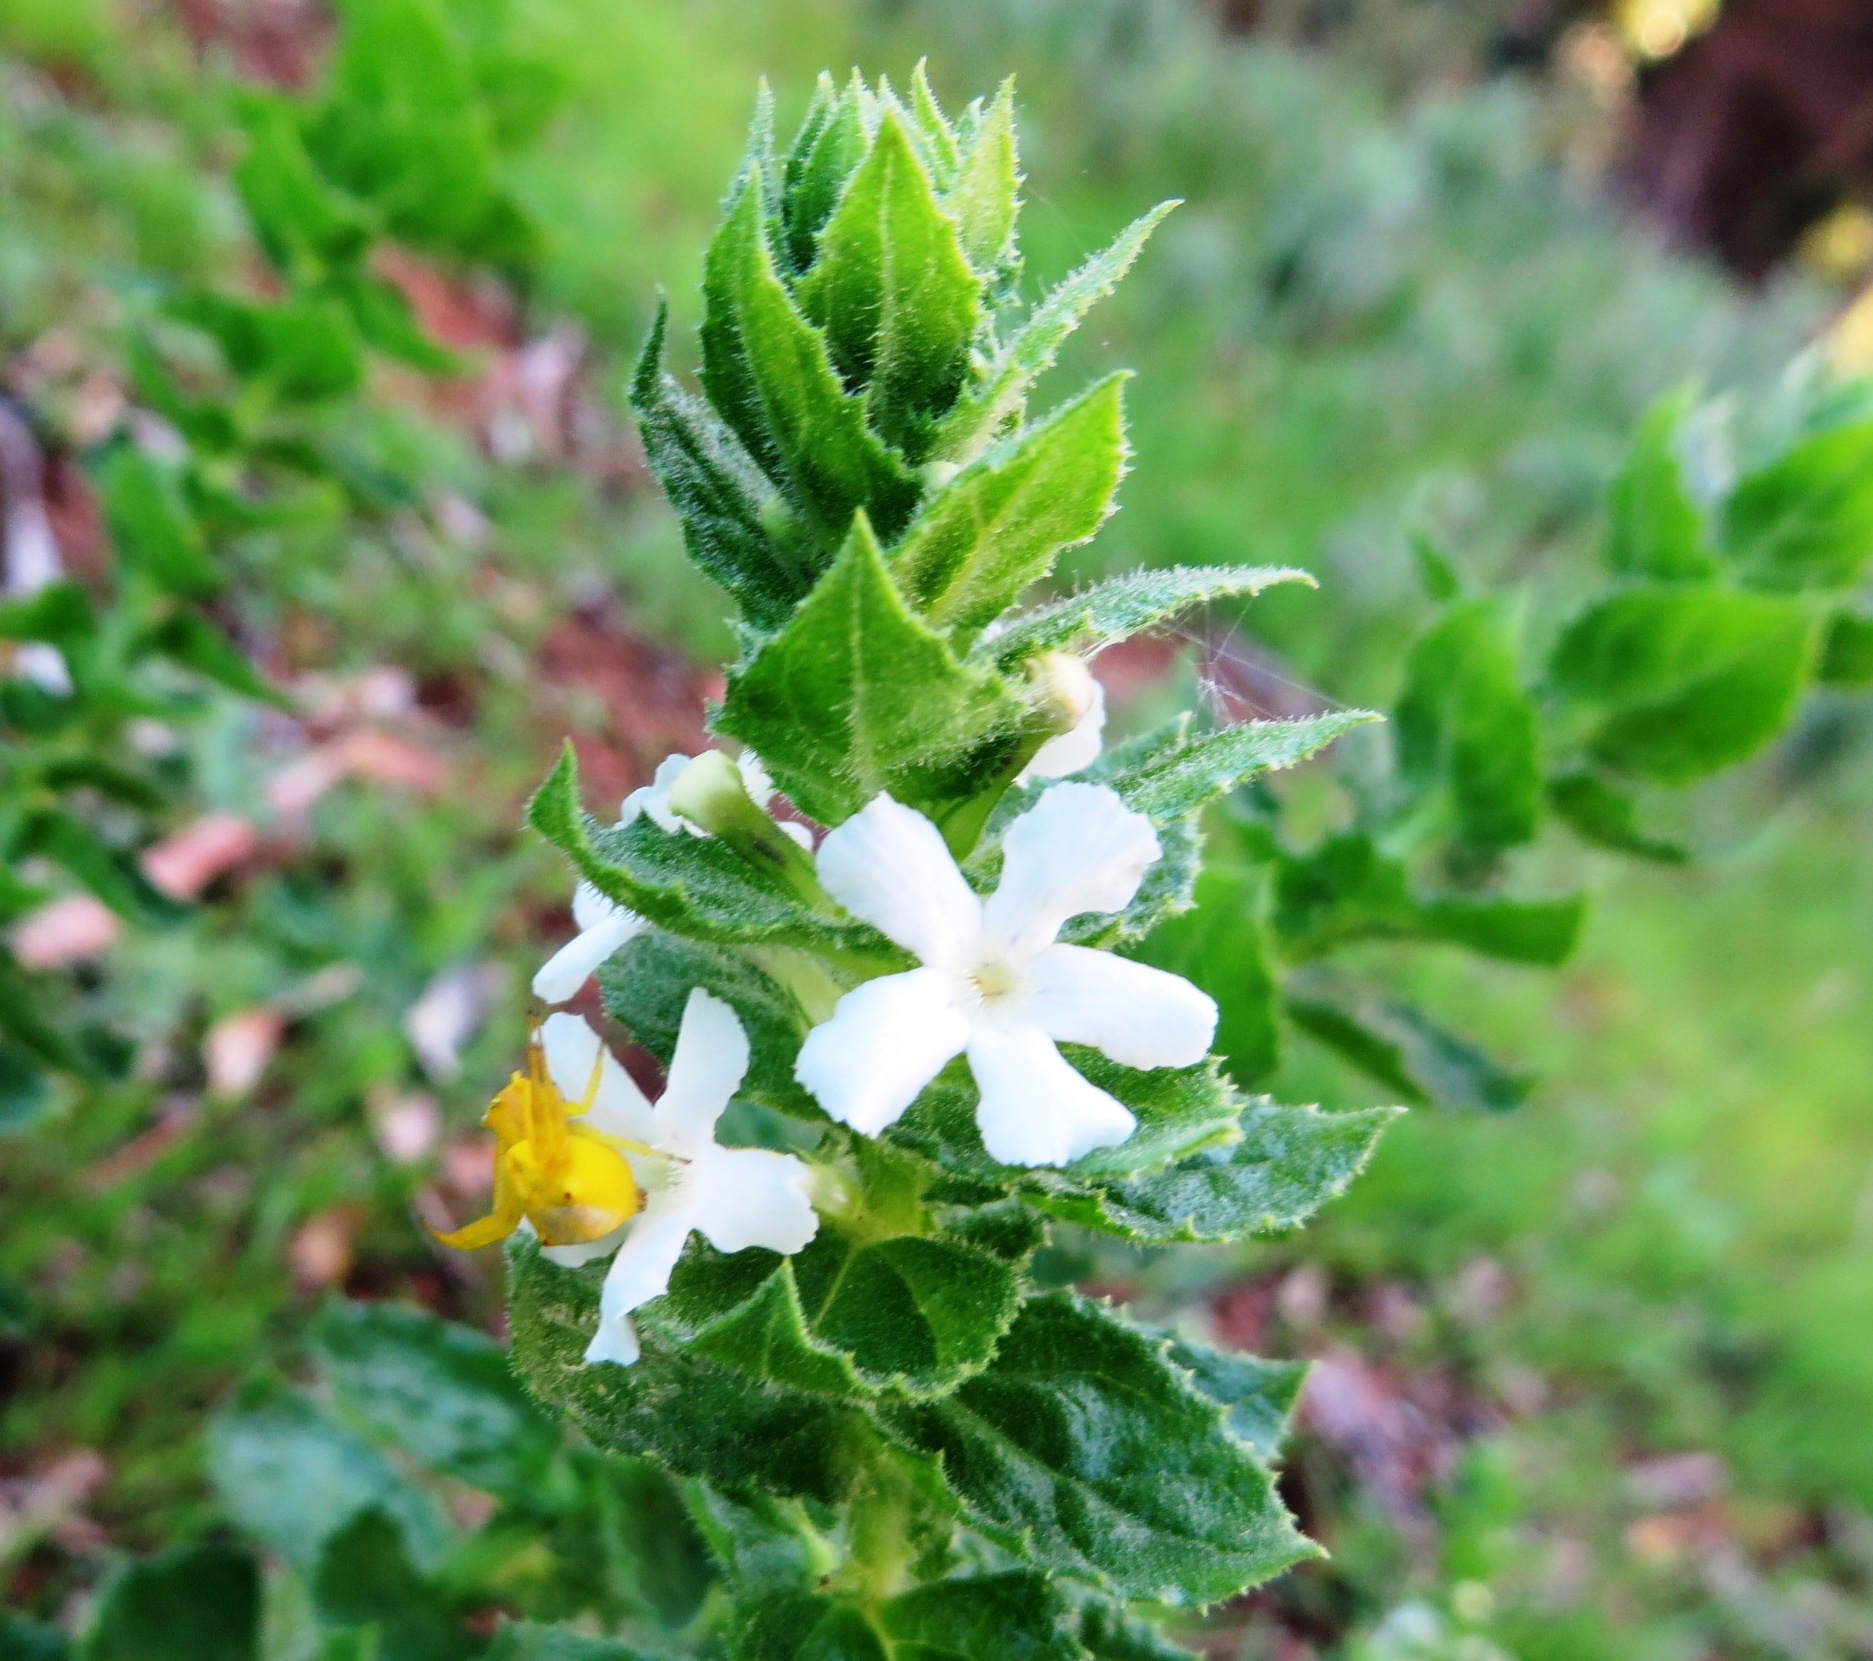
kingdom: Plantae
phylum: Tracheophyta
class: Magnoliopsida
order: Lamiales
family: Scrophulariaceae
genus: Oftia
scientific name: Oftia africana
